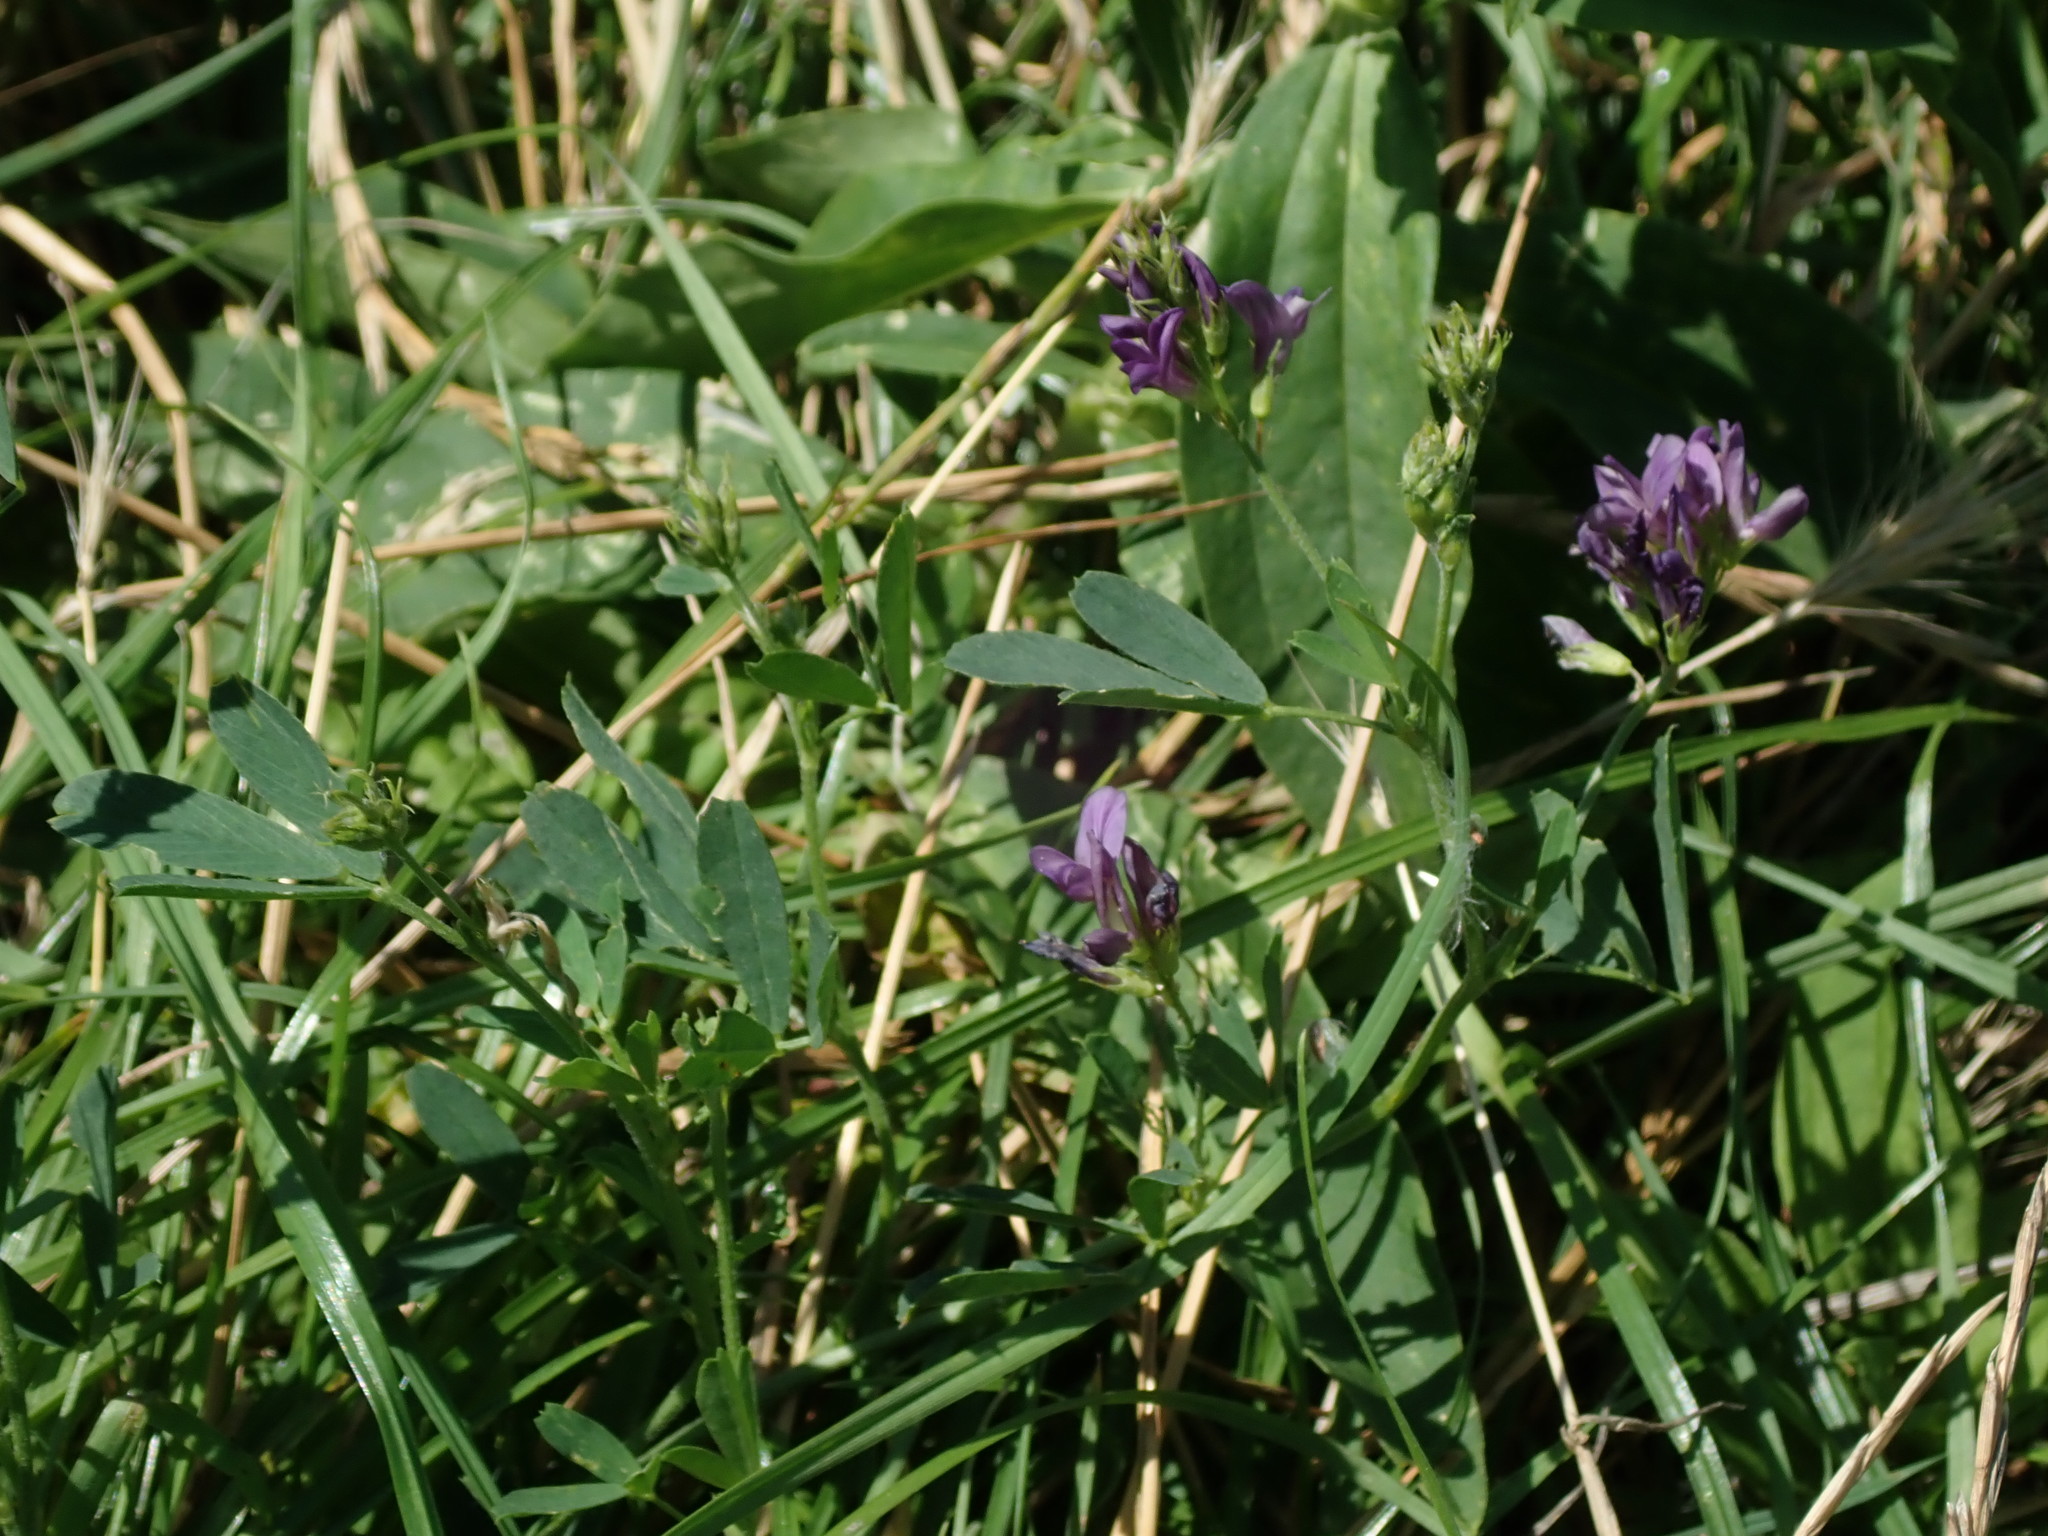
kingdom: Plantae
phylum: Tracheophyta
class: Magnoliopsida
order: Fabales
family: Fabaceae
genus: Medicago
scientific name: Medicago sativa
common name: Alfalfa
